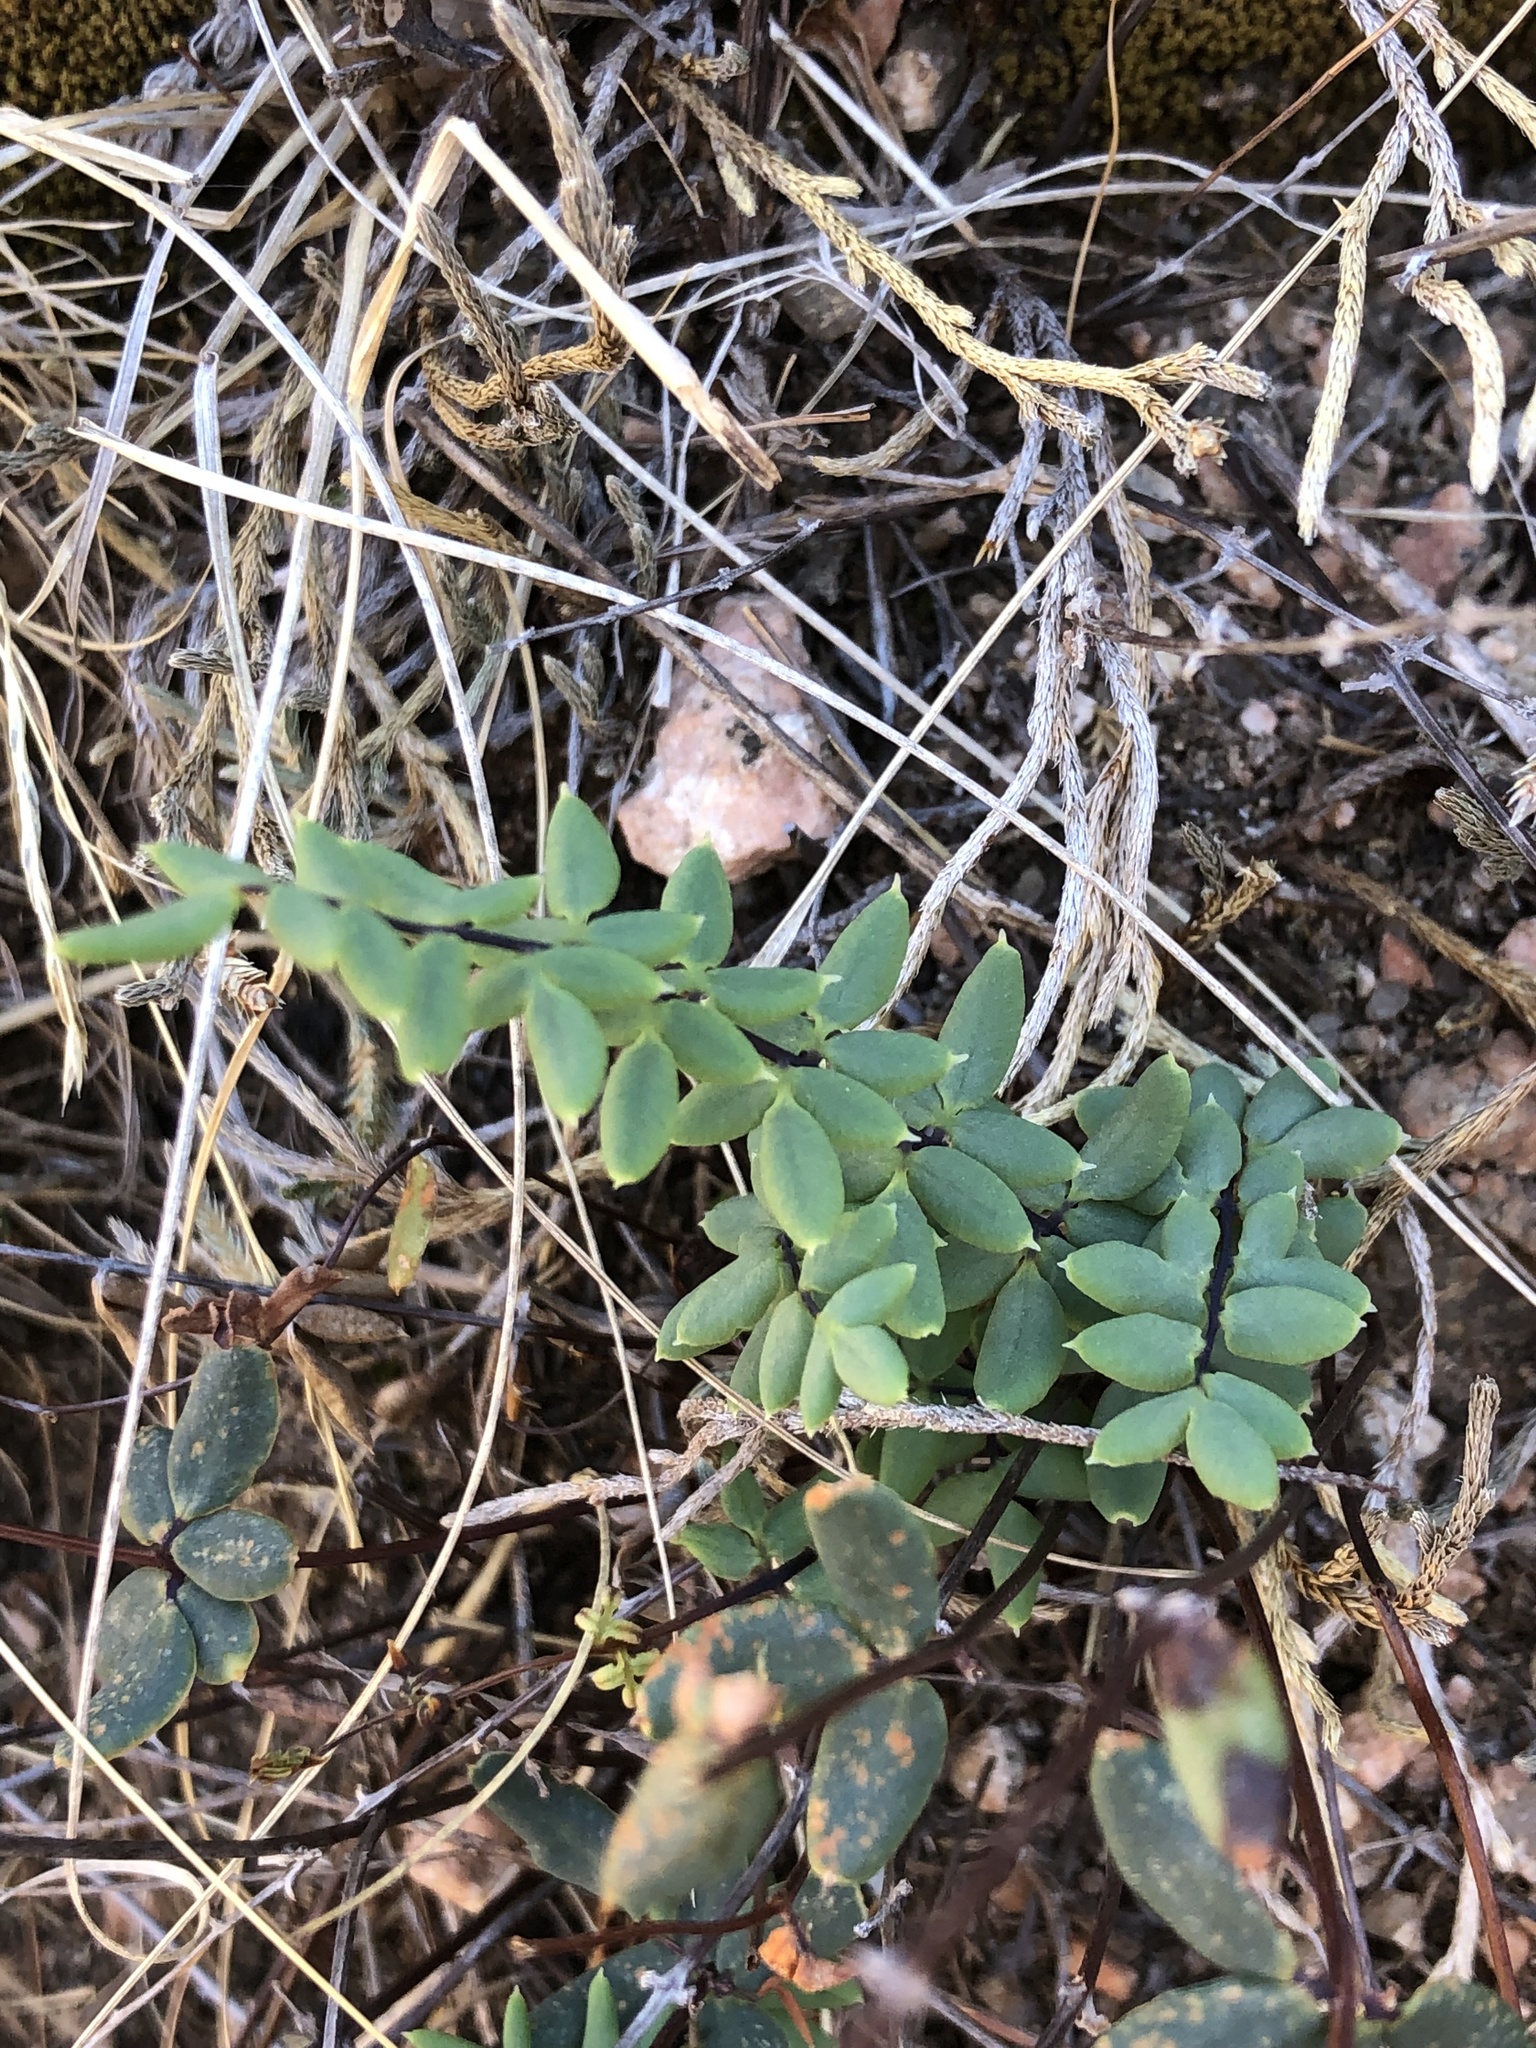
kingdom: Plantae
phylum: Tracheophyta
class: Polypodiopsida
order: Polypodiales
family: Pteridaceae
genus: Pellaea
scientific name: Pellaea wrightiana
